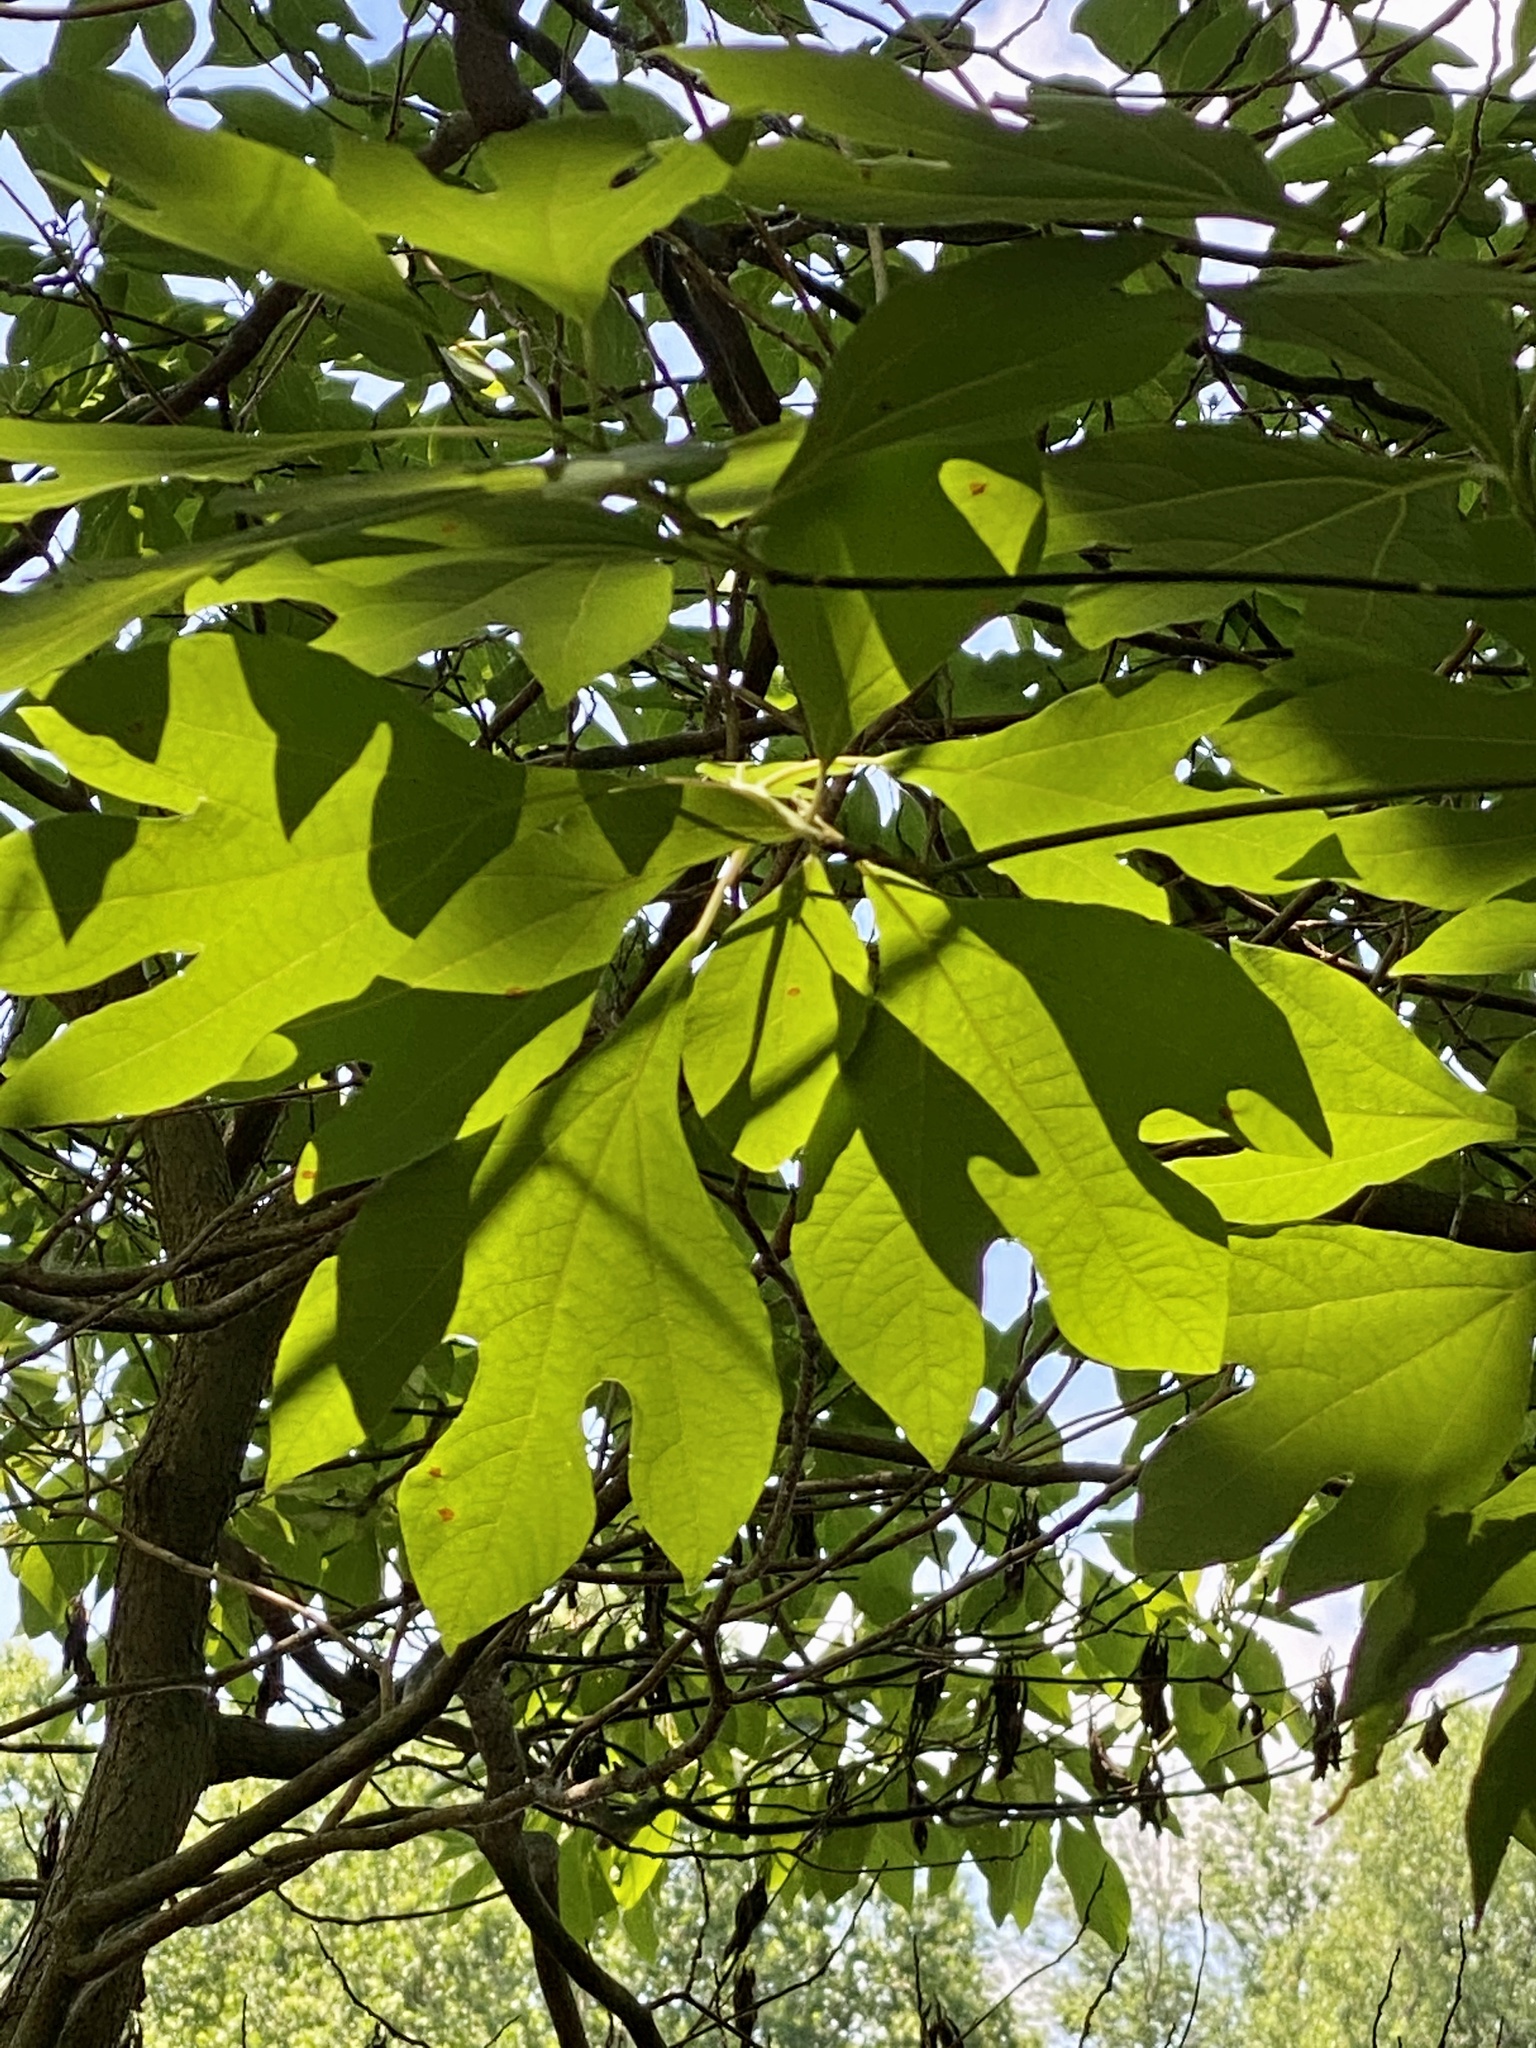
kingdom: Plantae
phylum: Tracheophyta
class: Magnoliopsida
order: Laurales
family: Lauraceae
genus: Sassafras
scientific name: Sassafras albidum
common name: Sassafras
